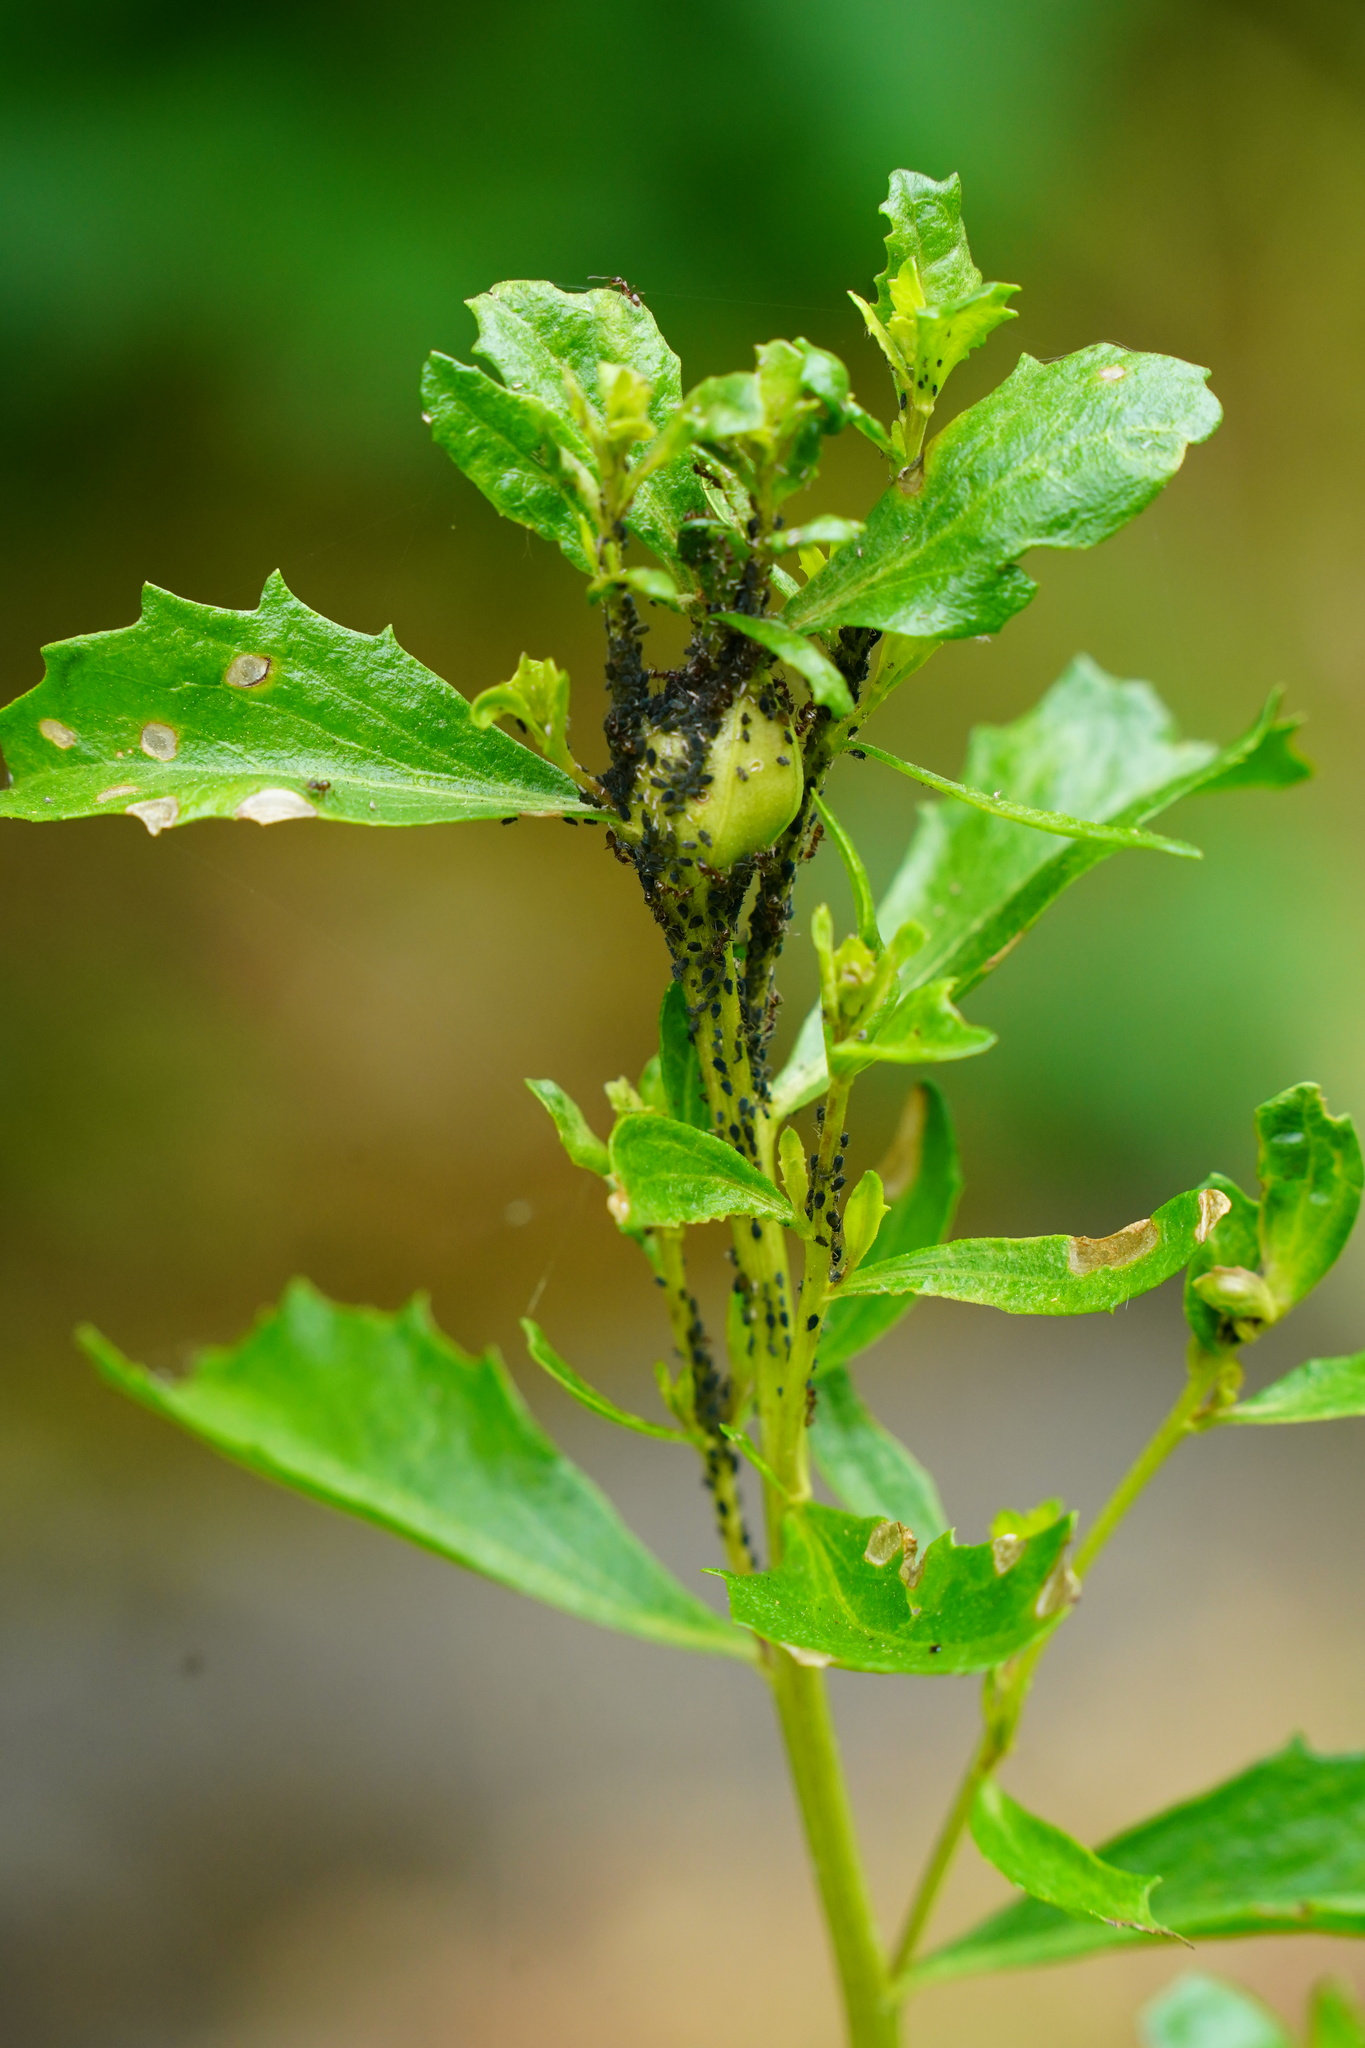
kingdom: Animalia
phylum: Arthropoda
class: Insecta
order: Lepidoptera
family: Gelechiidae
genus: Gnorimoschema
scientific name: Gnorimoschema baccharisella
